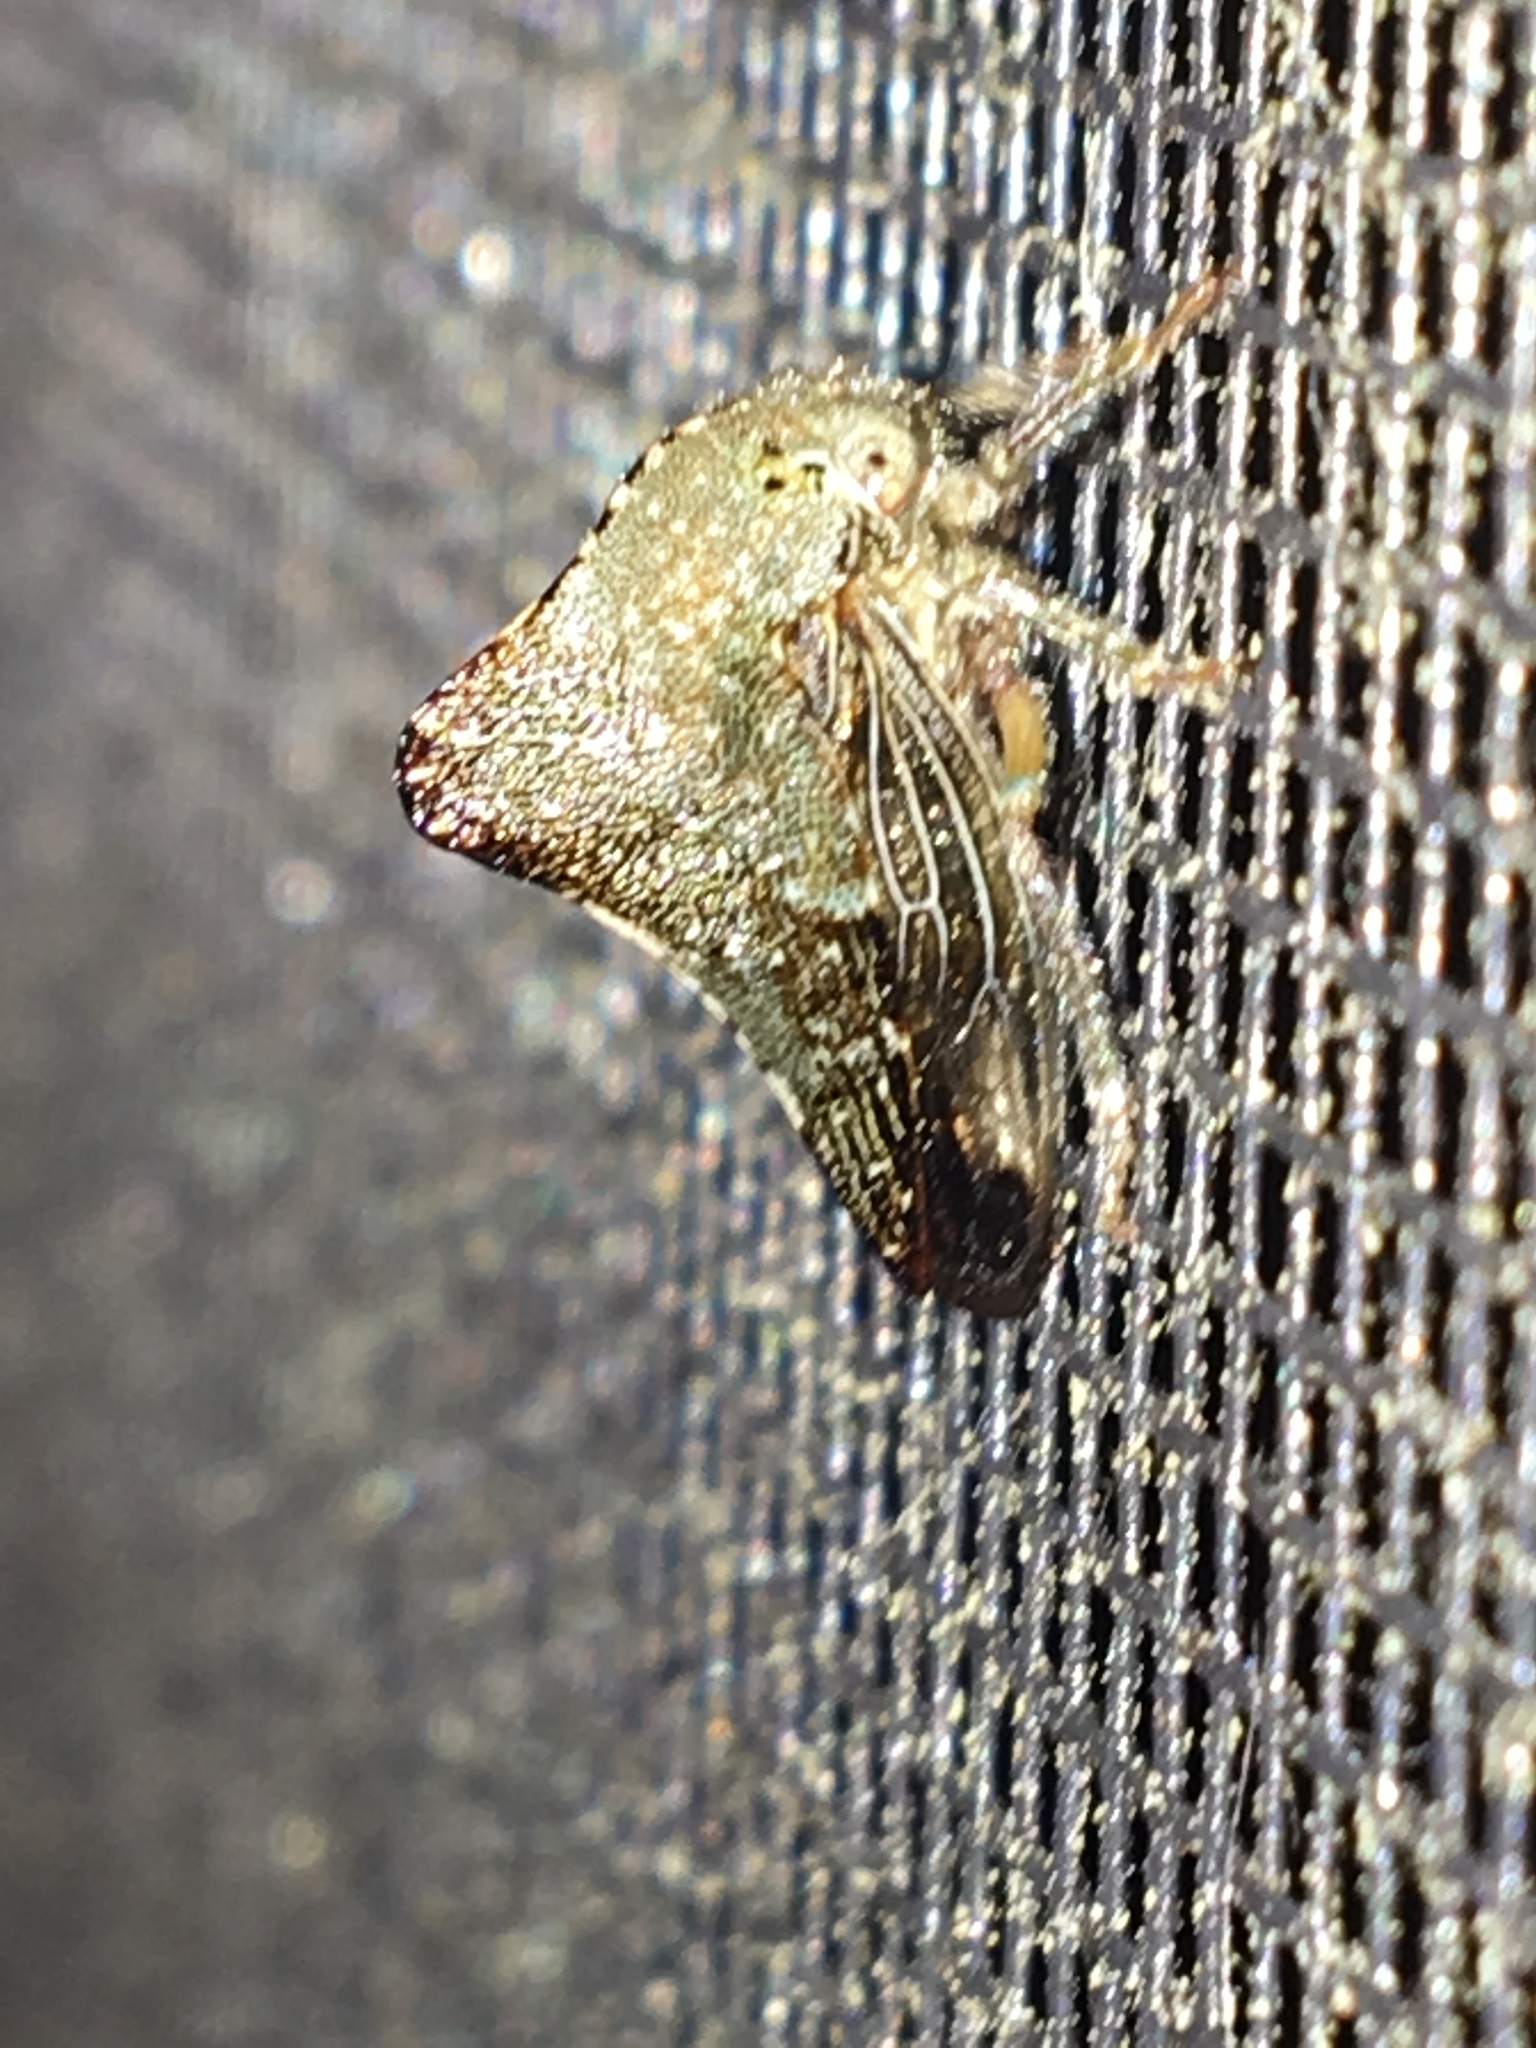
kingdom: Animalia
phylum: Arthropoda
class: Insecta
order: Hemiptera
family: Membracidae
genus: Telamona
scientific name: Telamona tarda
